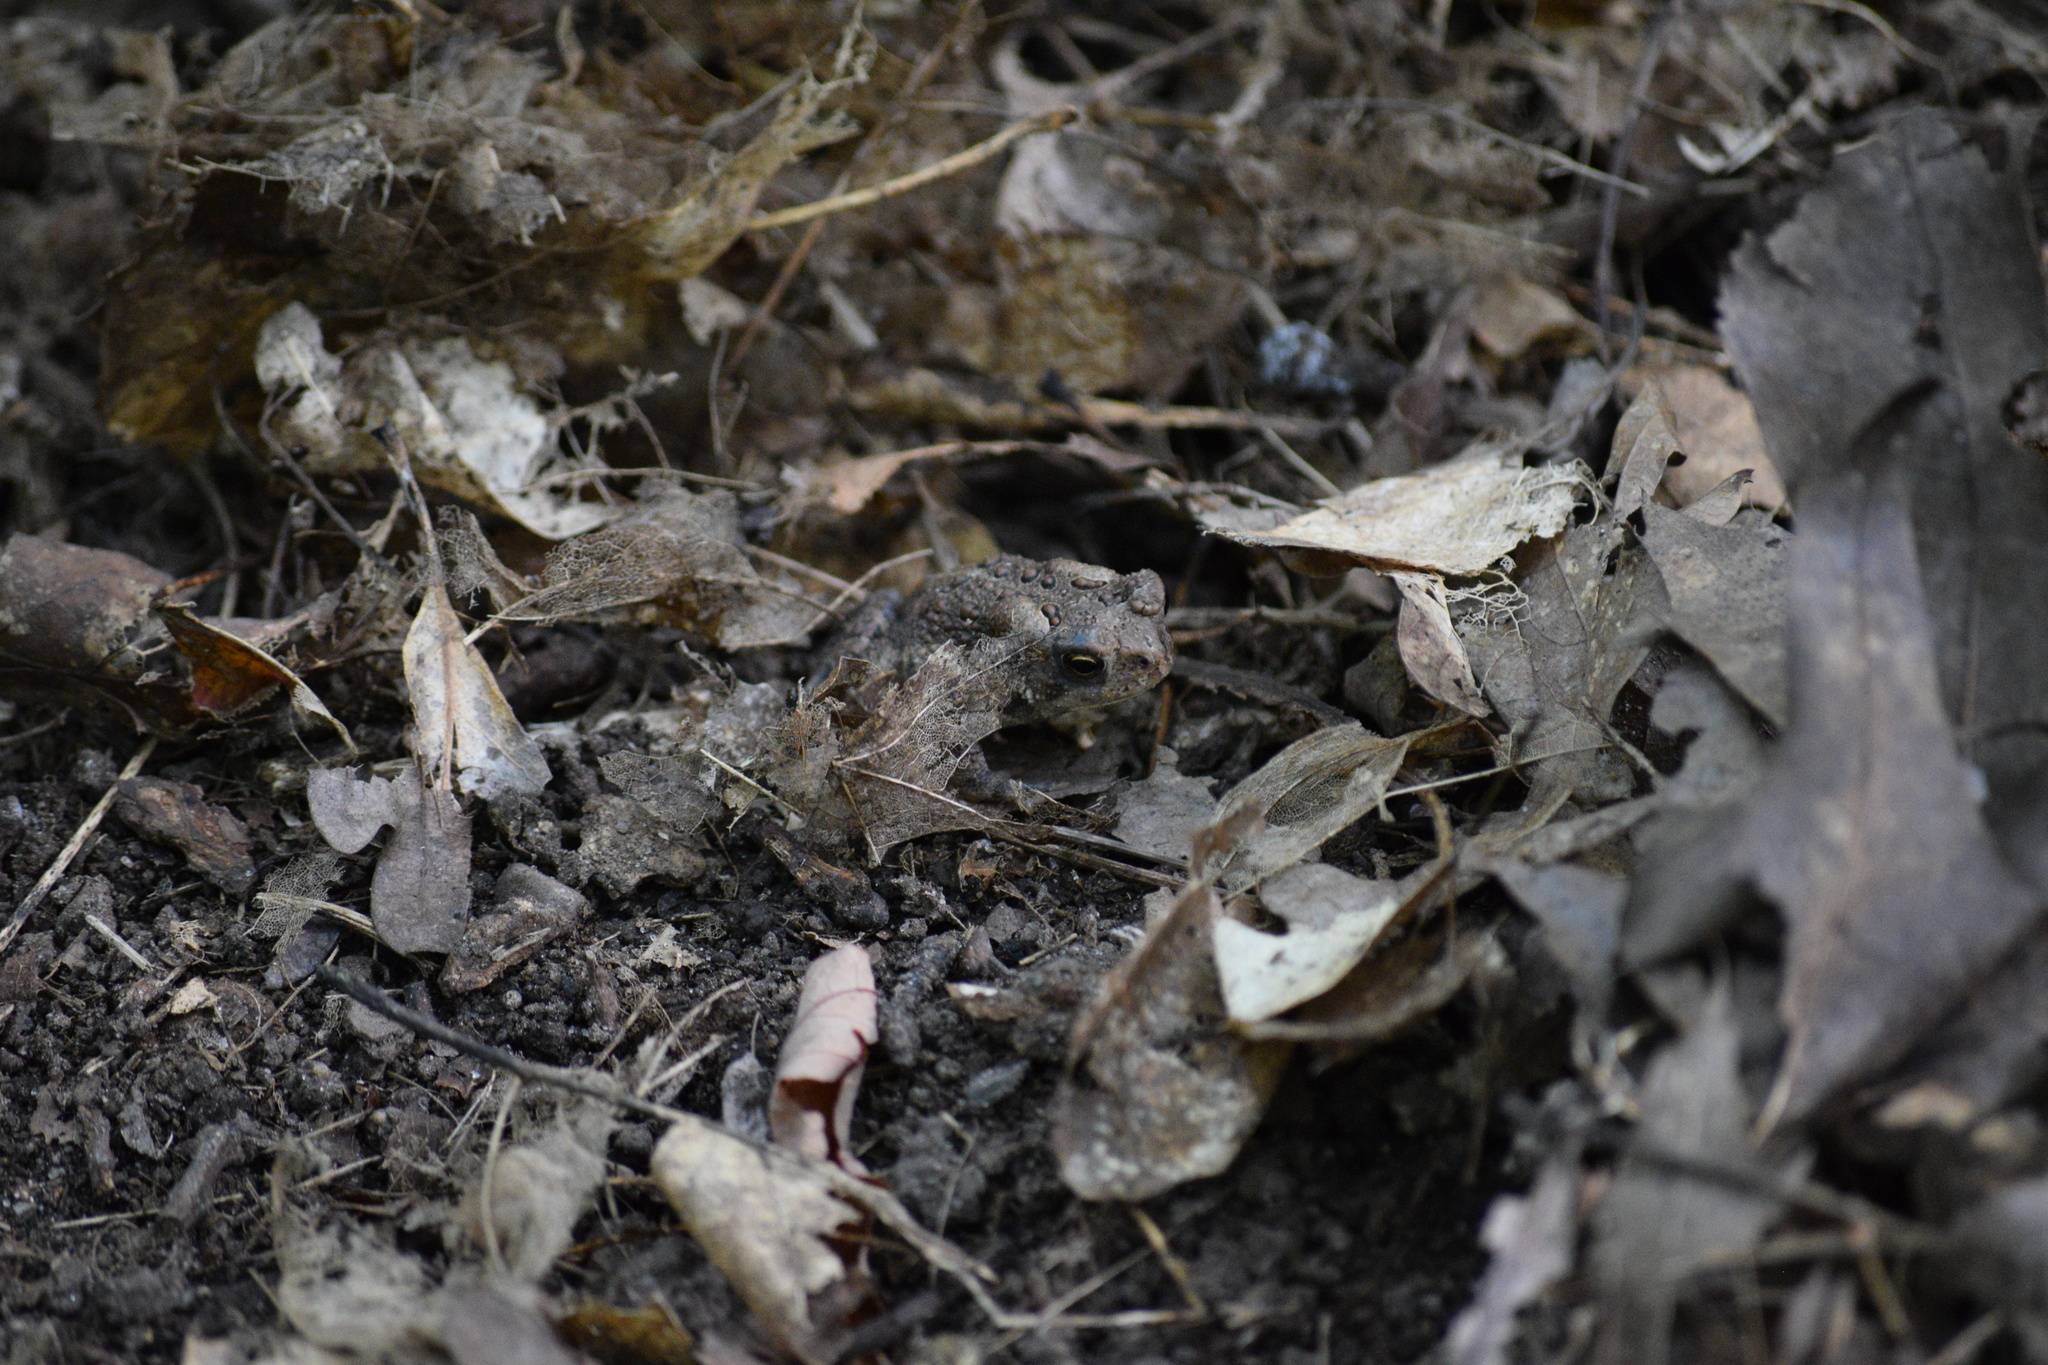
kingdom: Animalia
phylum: Chordata
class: Amphibia
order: Anura
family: Bufonidae
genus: Anaxyrus
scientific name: Anaxyrus americanus
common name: American toad
